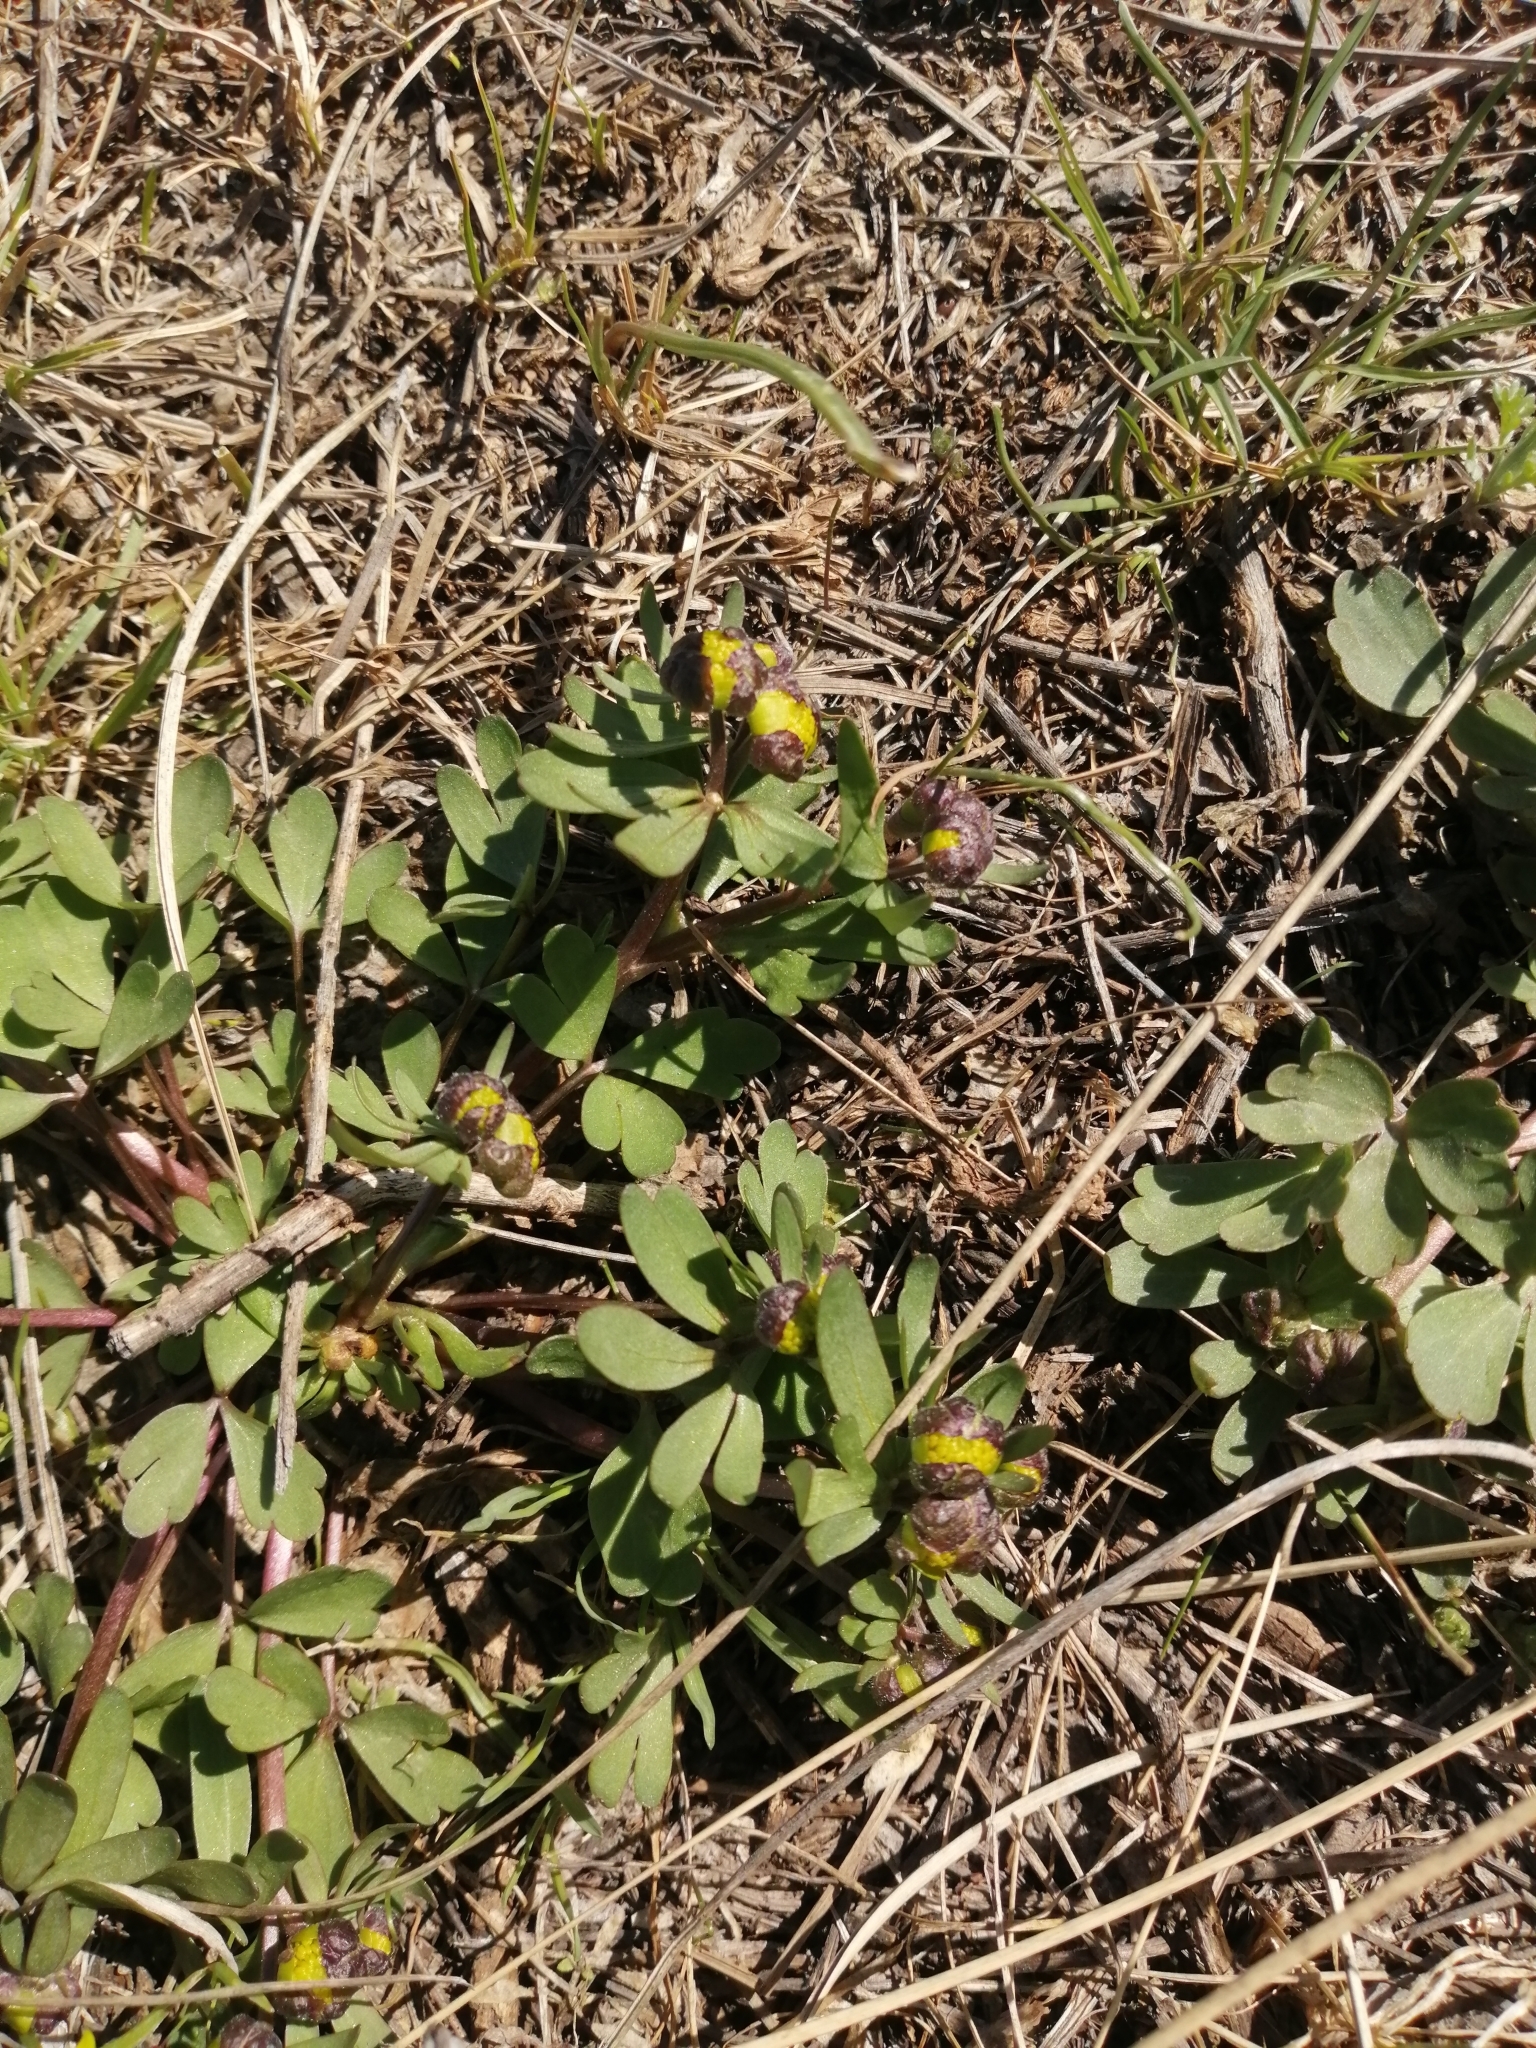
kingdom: Plantae
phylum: Tracheophyta
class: Magnoliopsida
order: Ranunculales
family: Ranunculaceae
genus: Ranunculus
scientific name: Ranunculus polyrhizos
